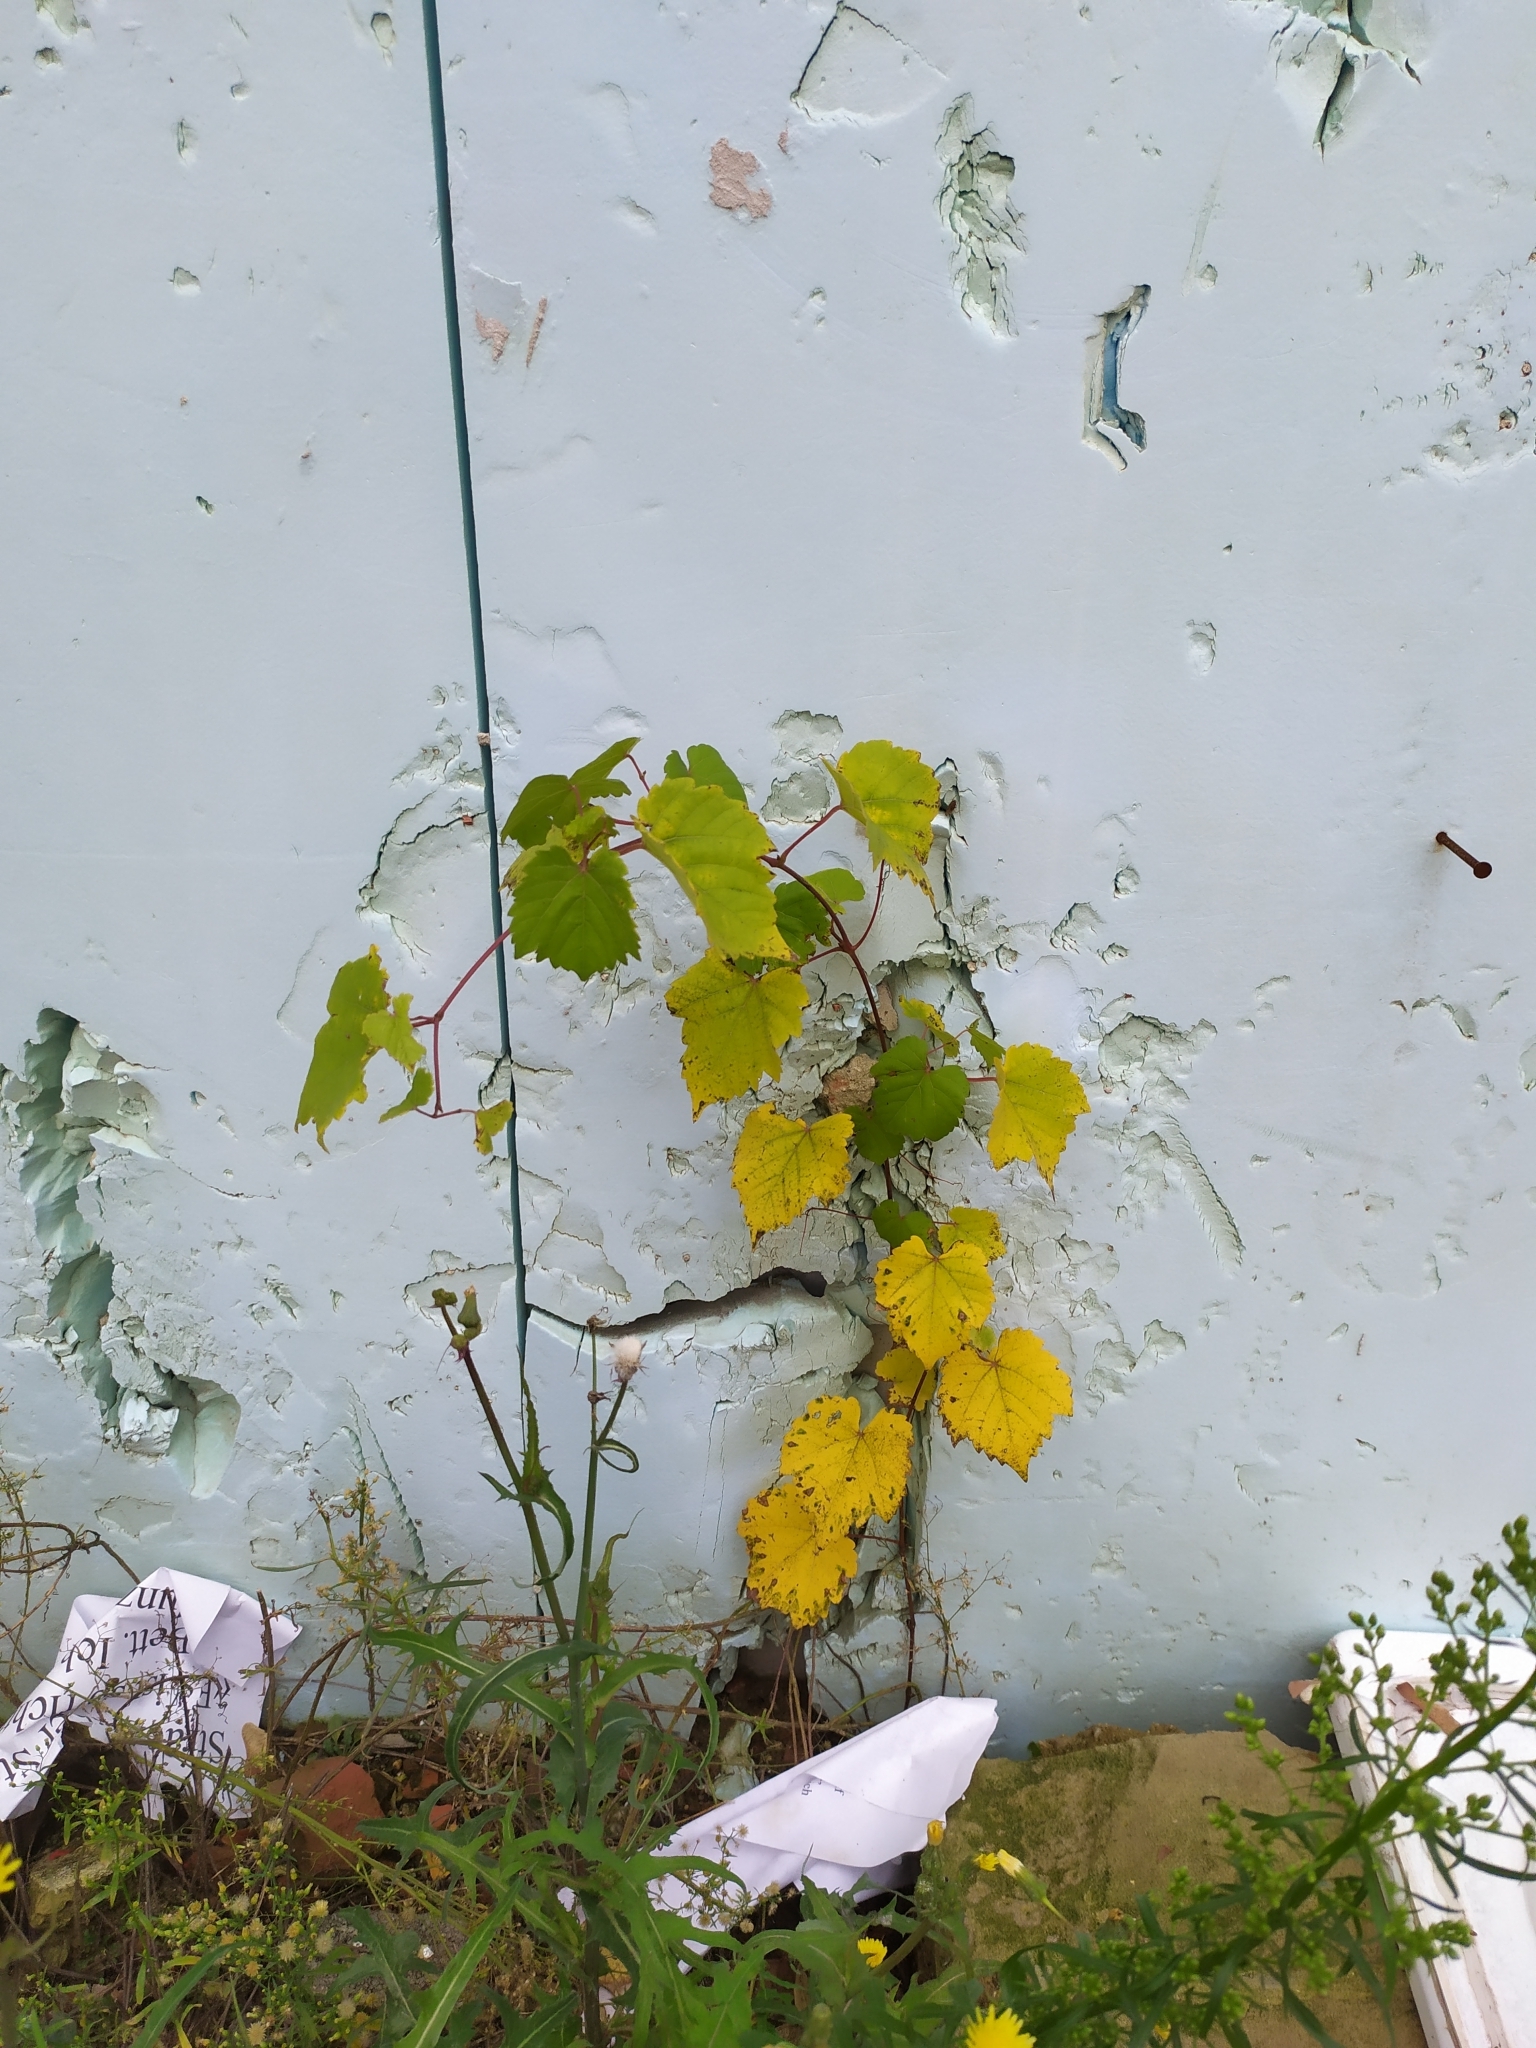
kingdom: Plantae
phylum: Tracheophyta
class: Magnoliopsida
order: Vitales
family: Vitaceae
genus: Vitis
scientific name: Vitis vinifera
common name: Grape-vine
